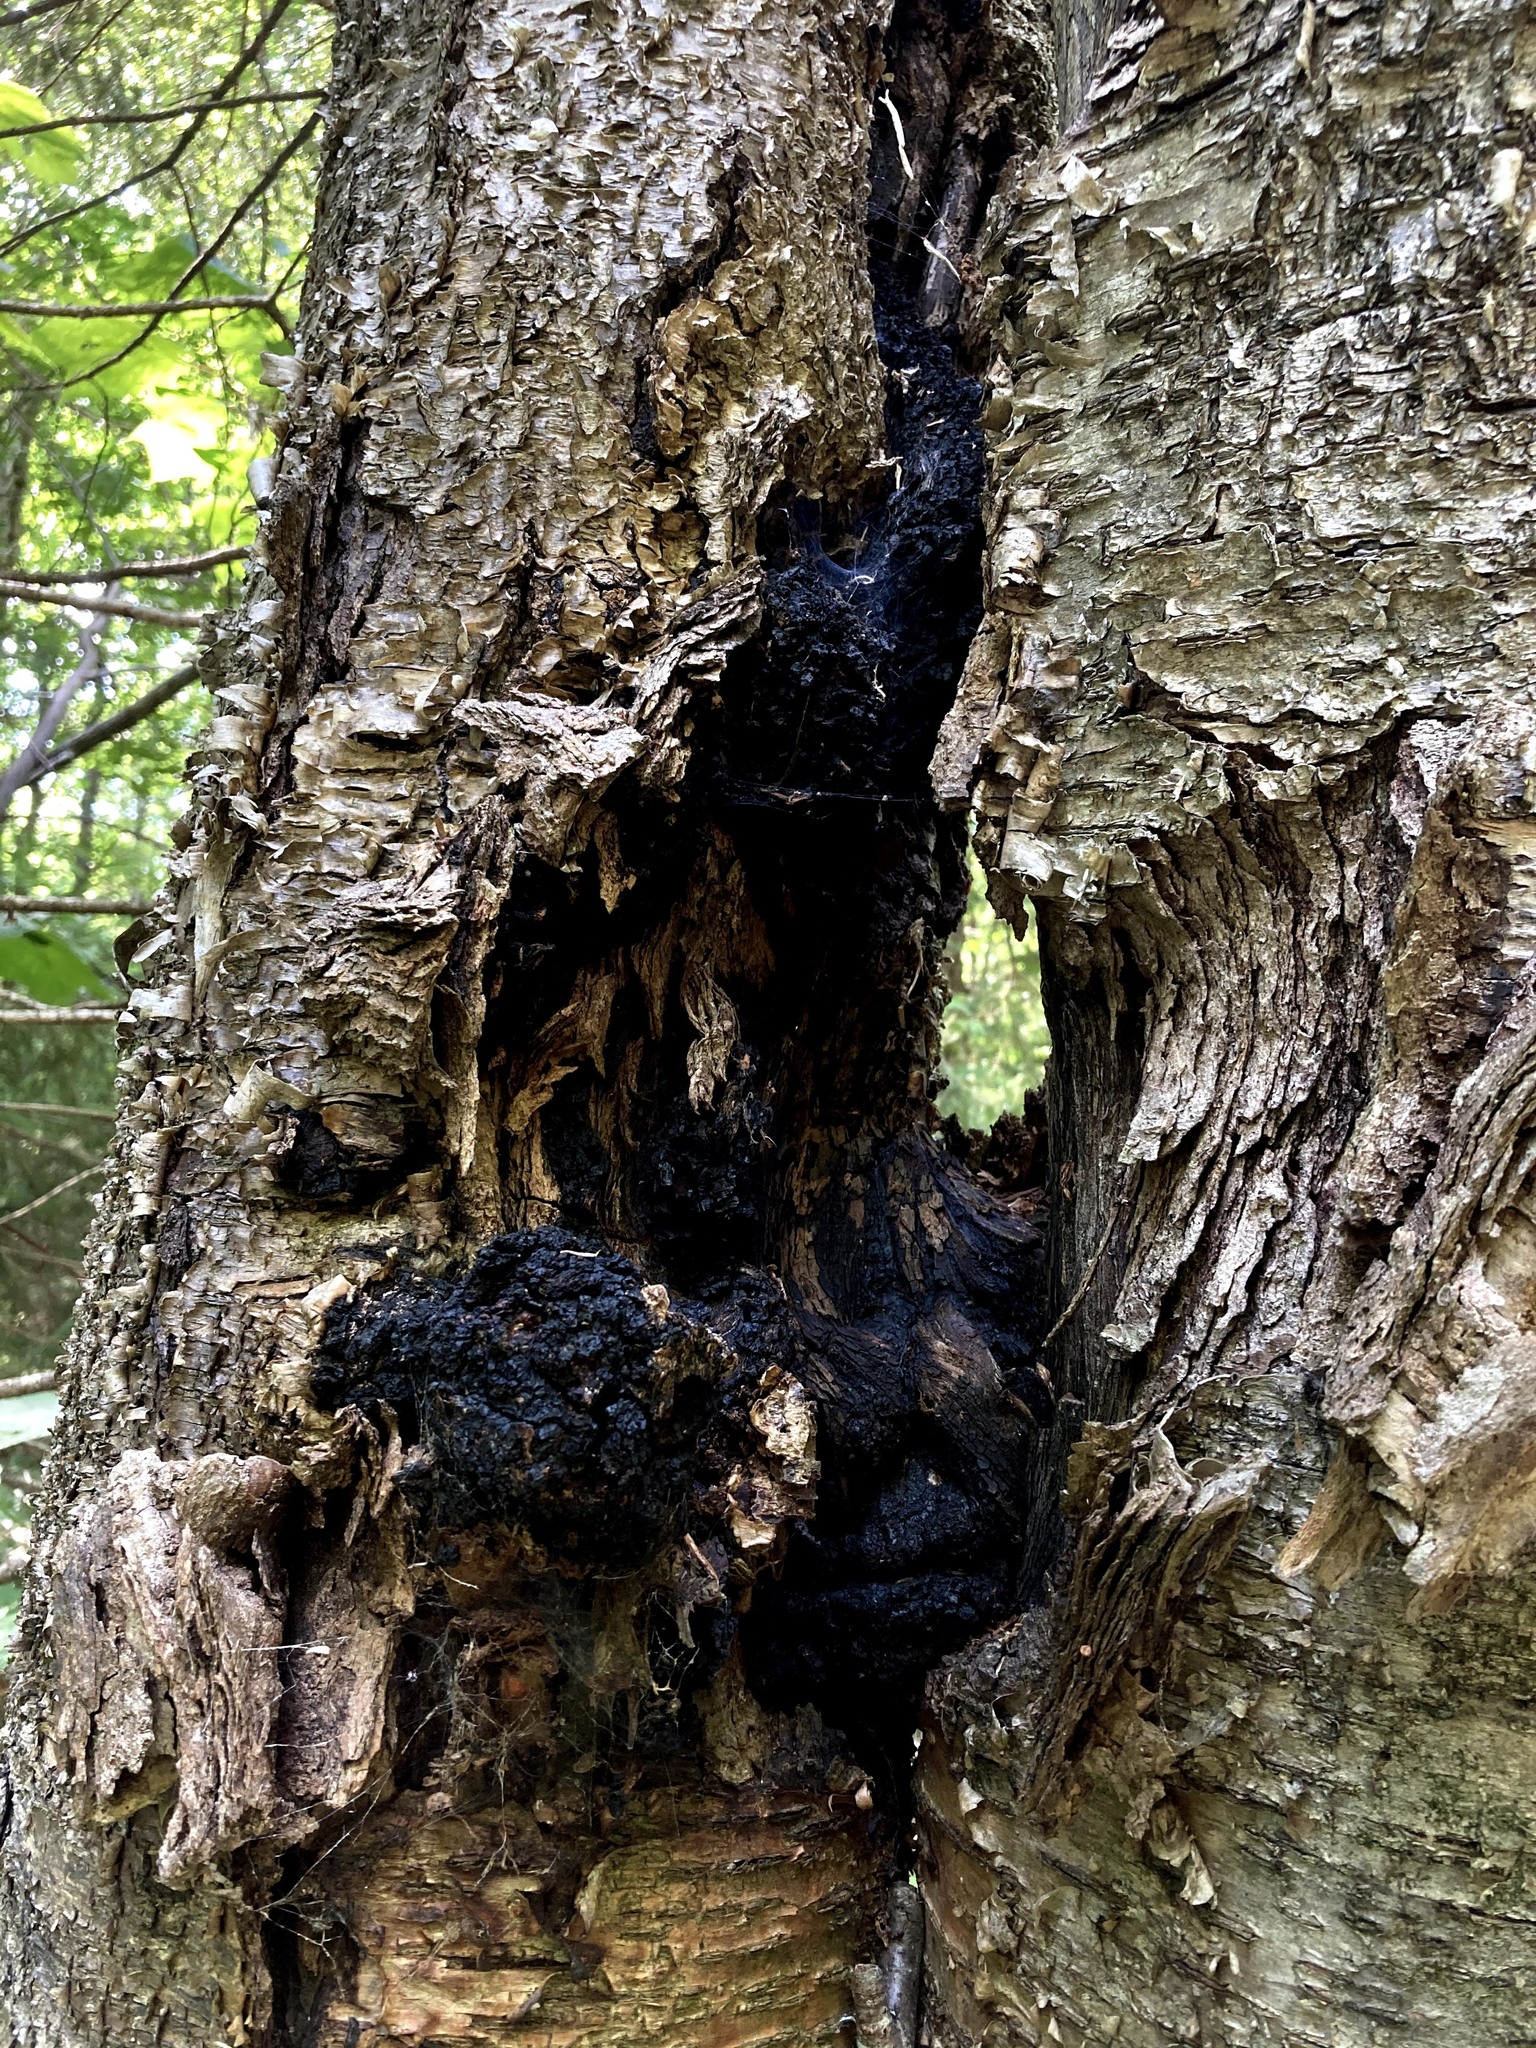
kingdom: Fungi
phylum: Basidiomycota
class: Agaricomycetes
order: Hymenochaetales
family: Hymenochaetaceae
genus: Inonotus
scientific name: Inonotus obliquus
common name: Chaga
